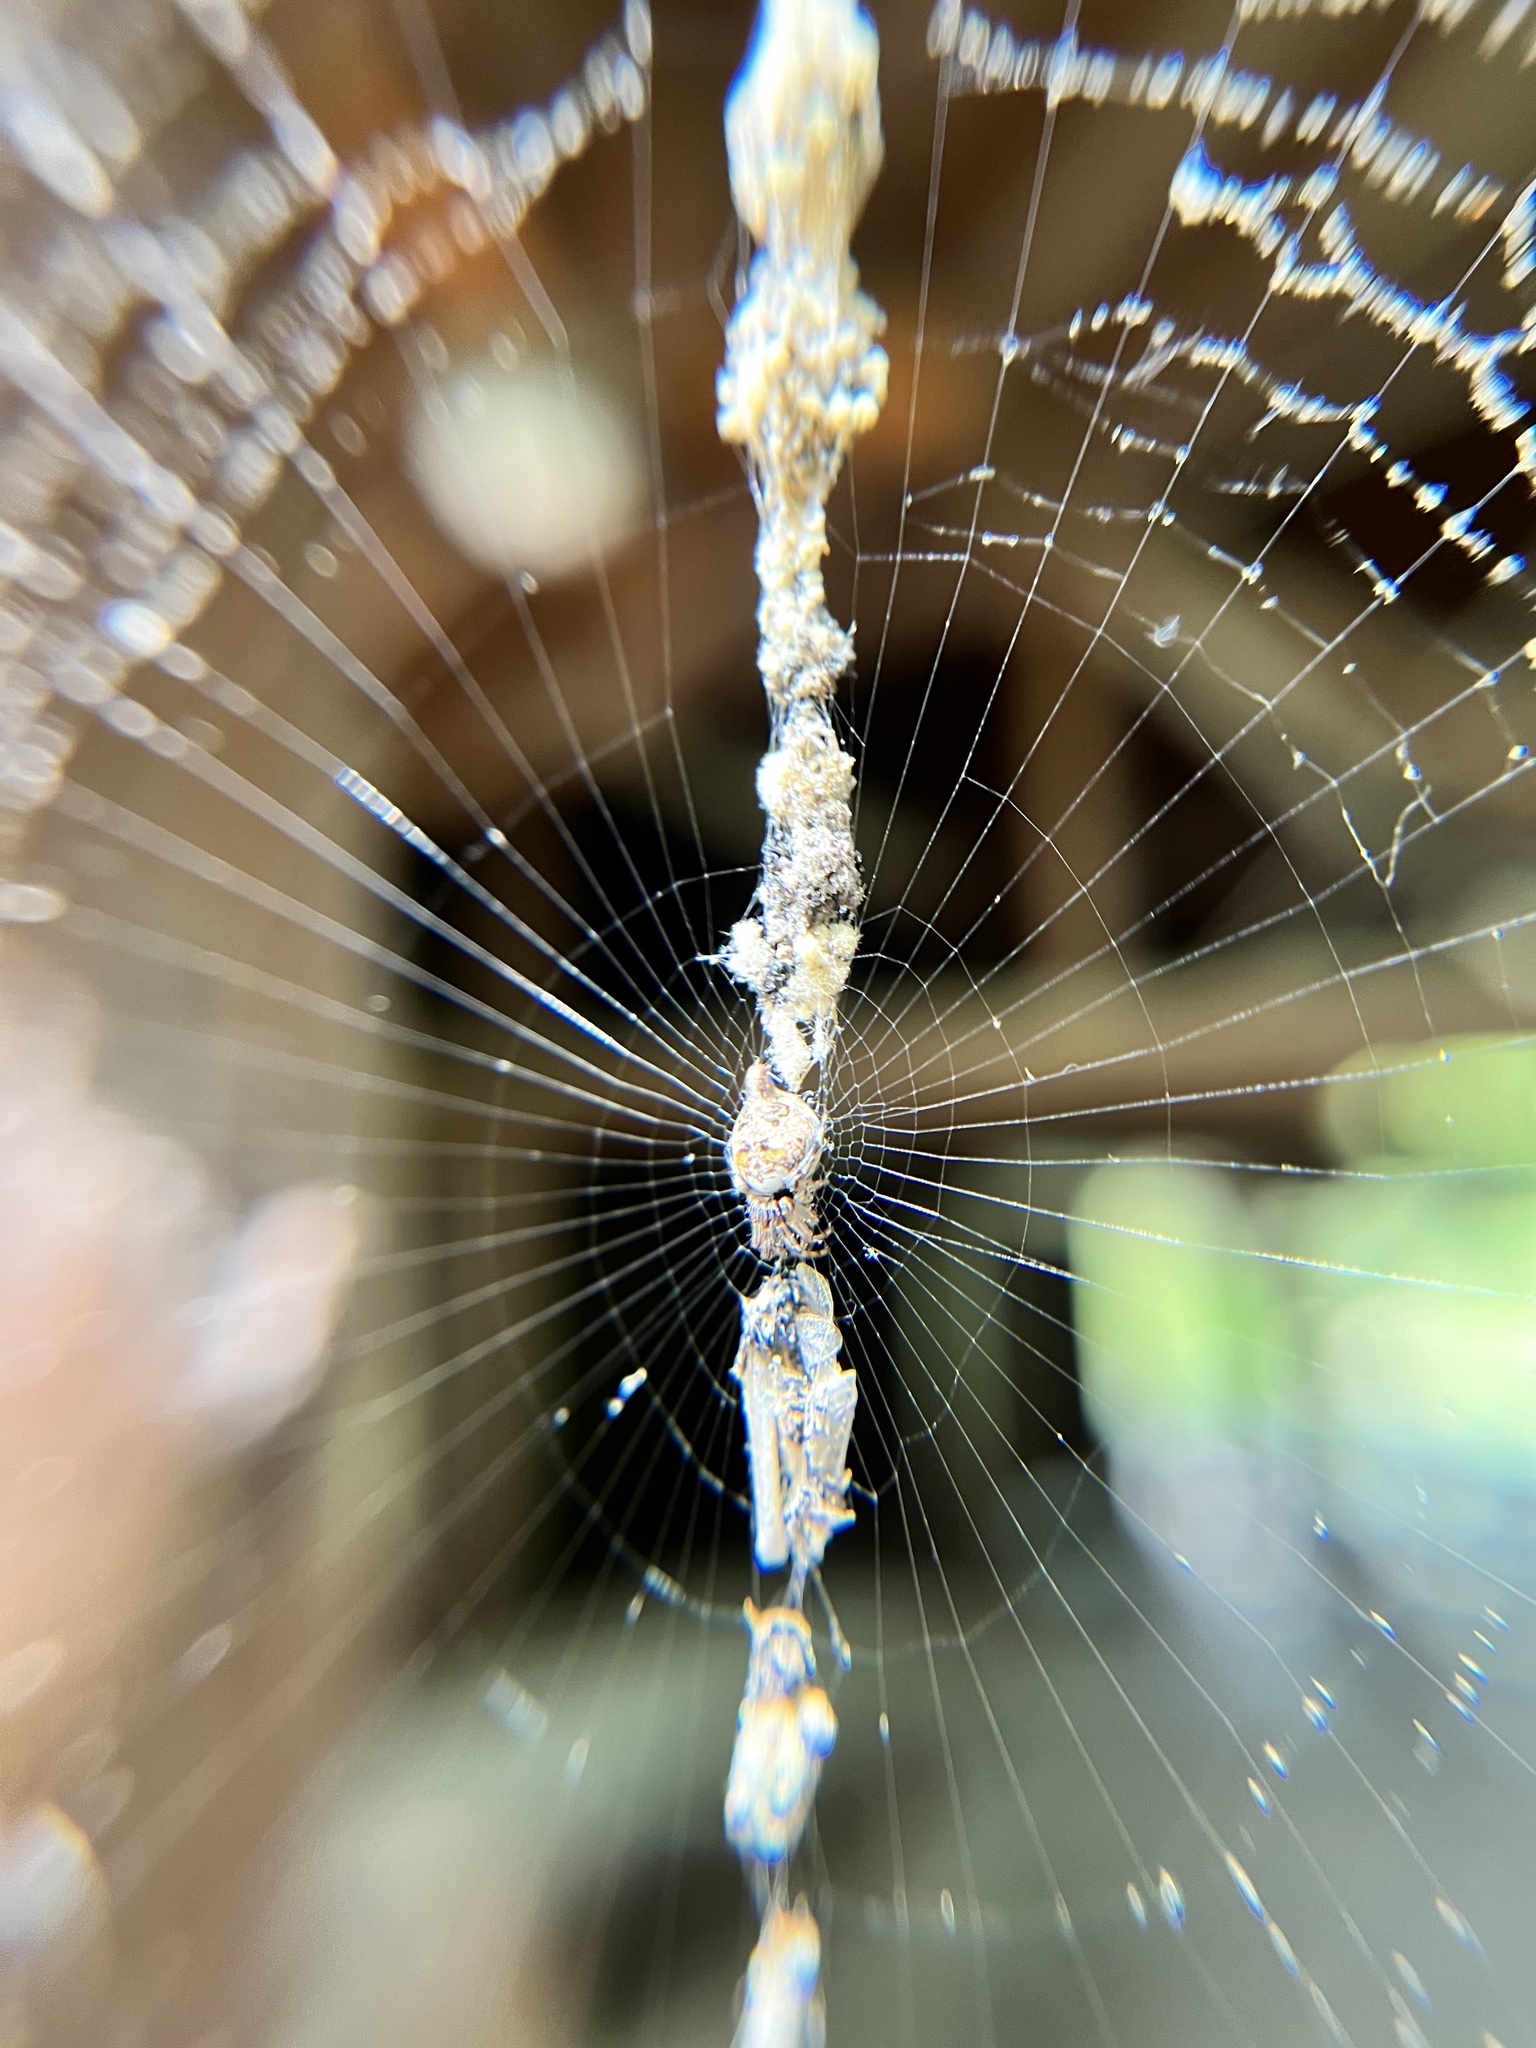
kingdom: Animalia
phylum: Arthropoda
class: Arachnida
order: Araneae
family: Araneidae
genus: Cyclosa
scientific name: Cyclosa turbinata
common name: Orb weavers
